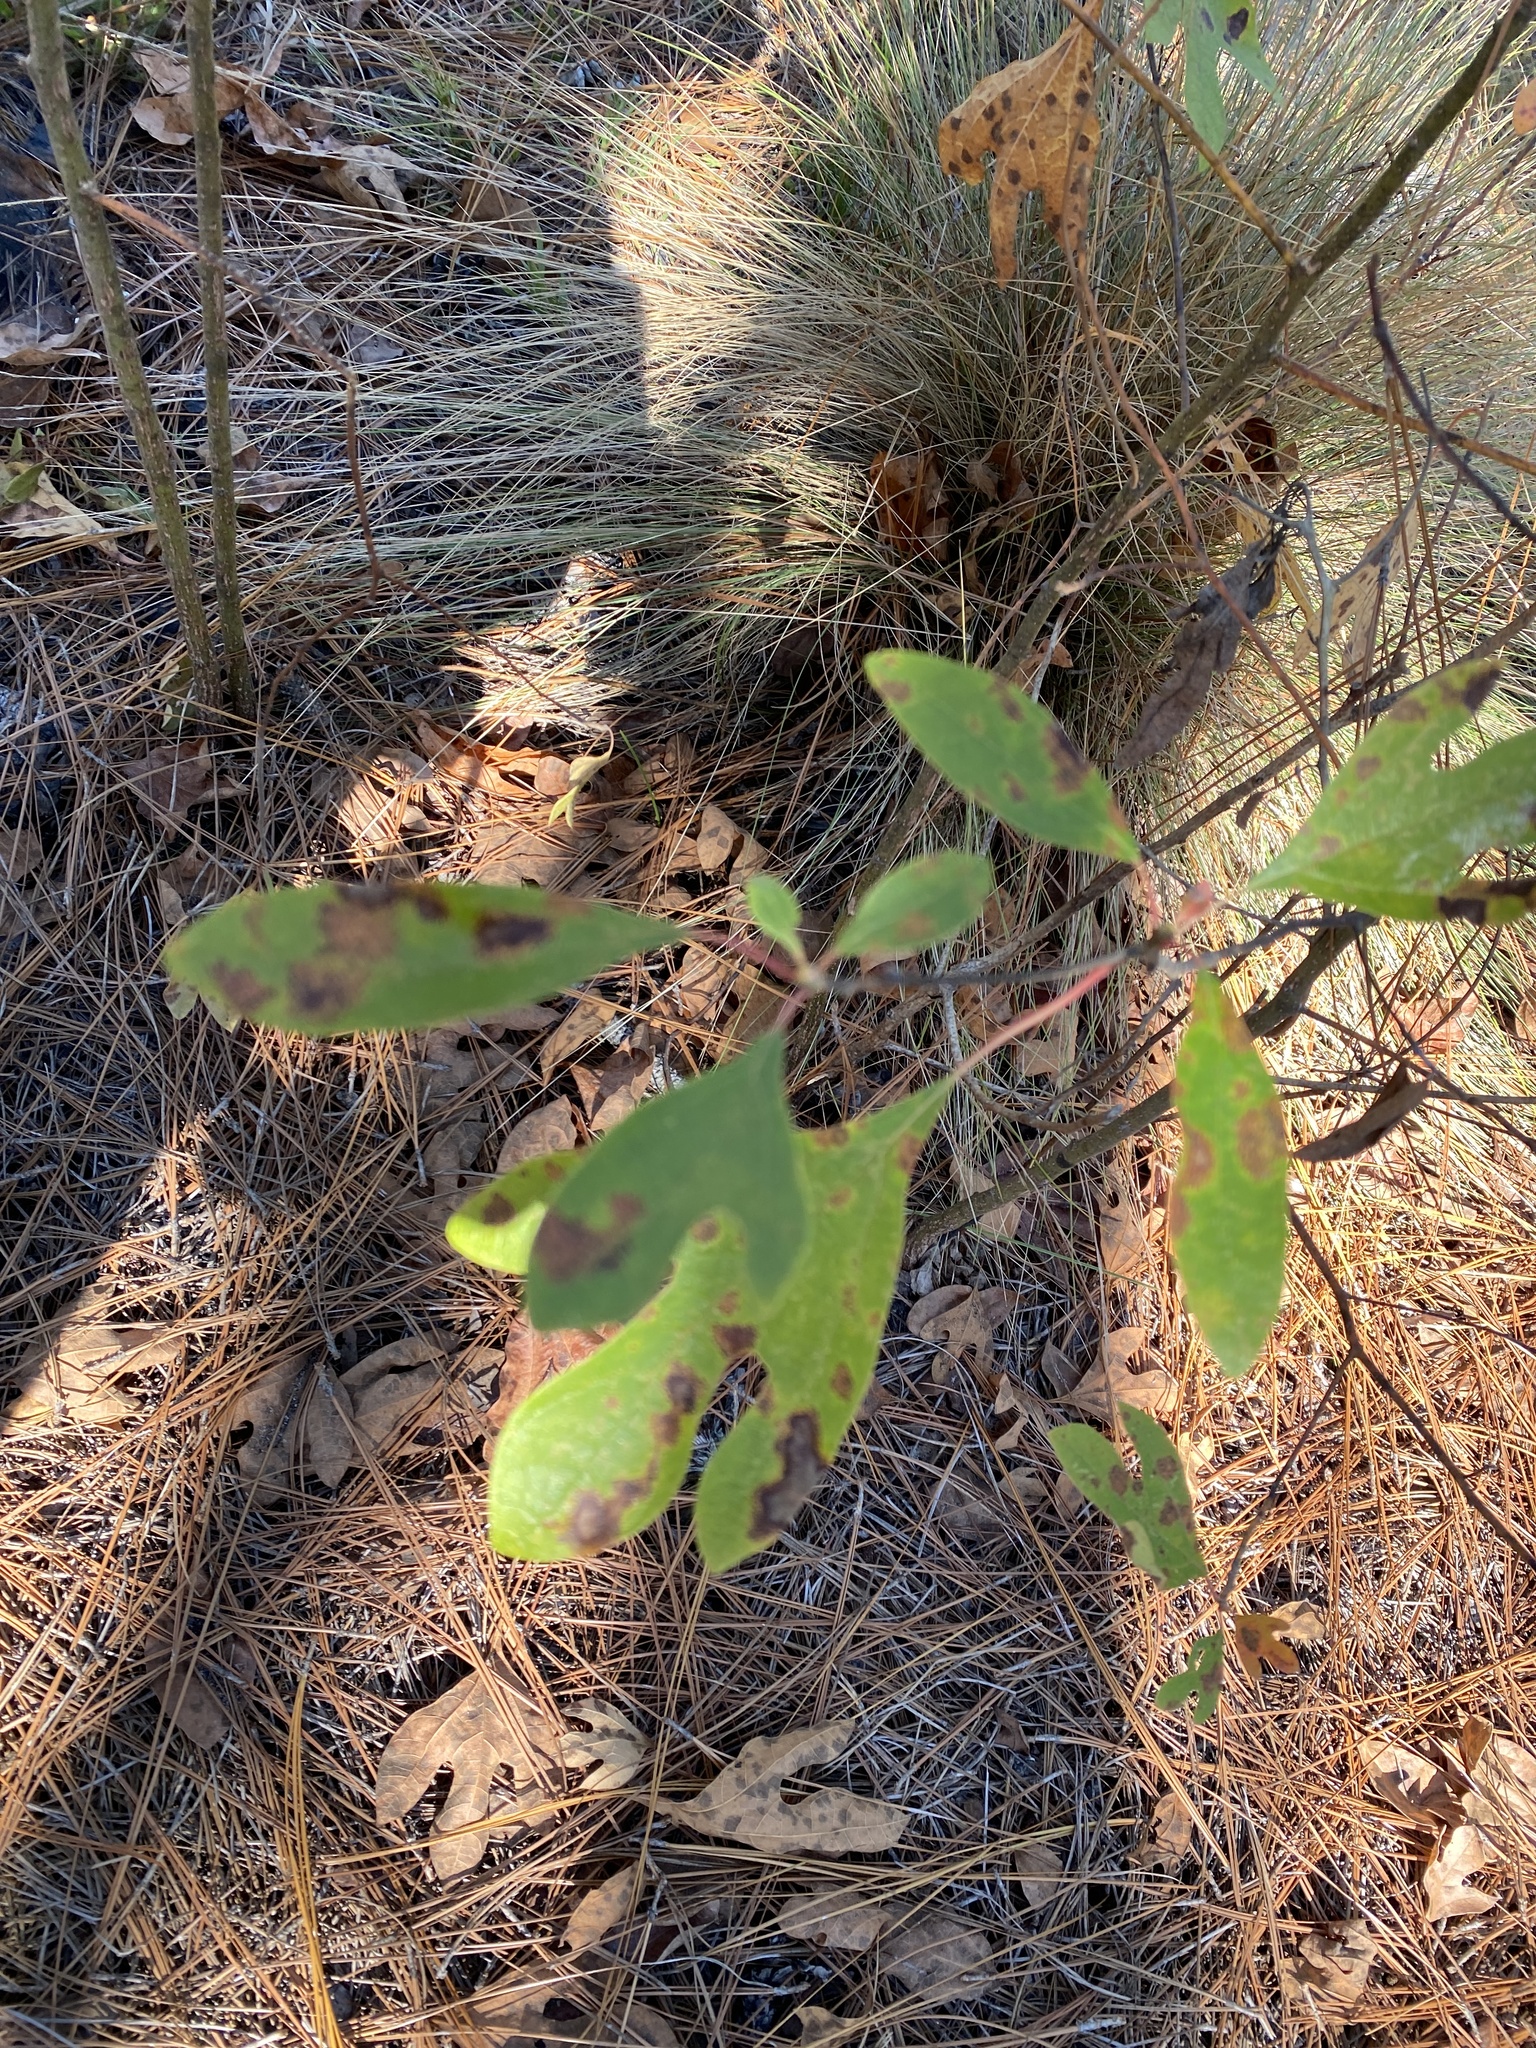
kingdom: Plantae
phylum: Tracheophyta
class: Magnoliopsida
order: Laurales
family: Lauraceae
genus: Sassafras
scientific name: Sassafras albidum
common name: Sassafras
